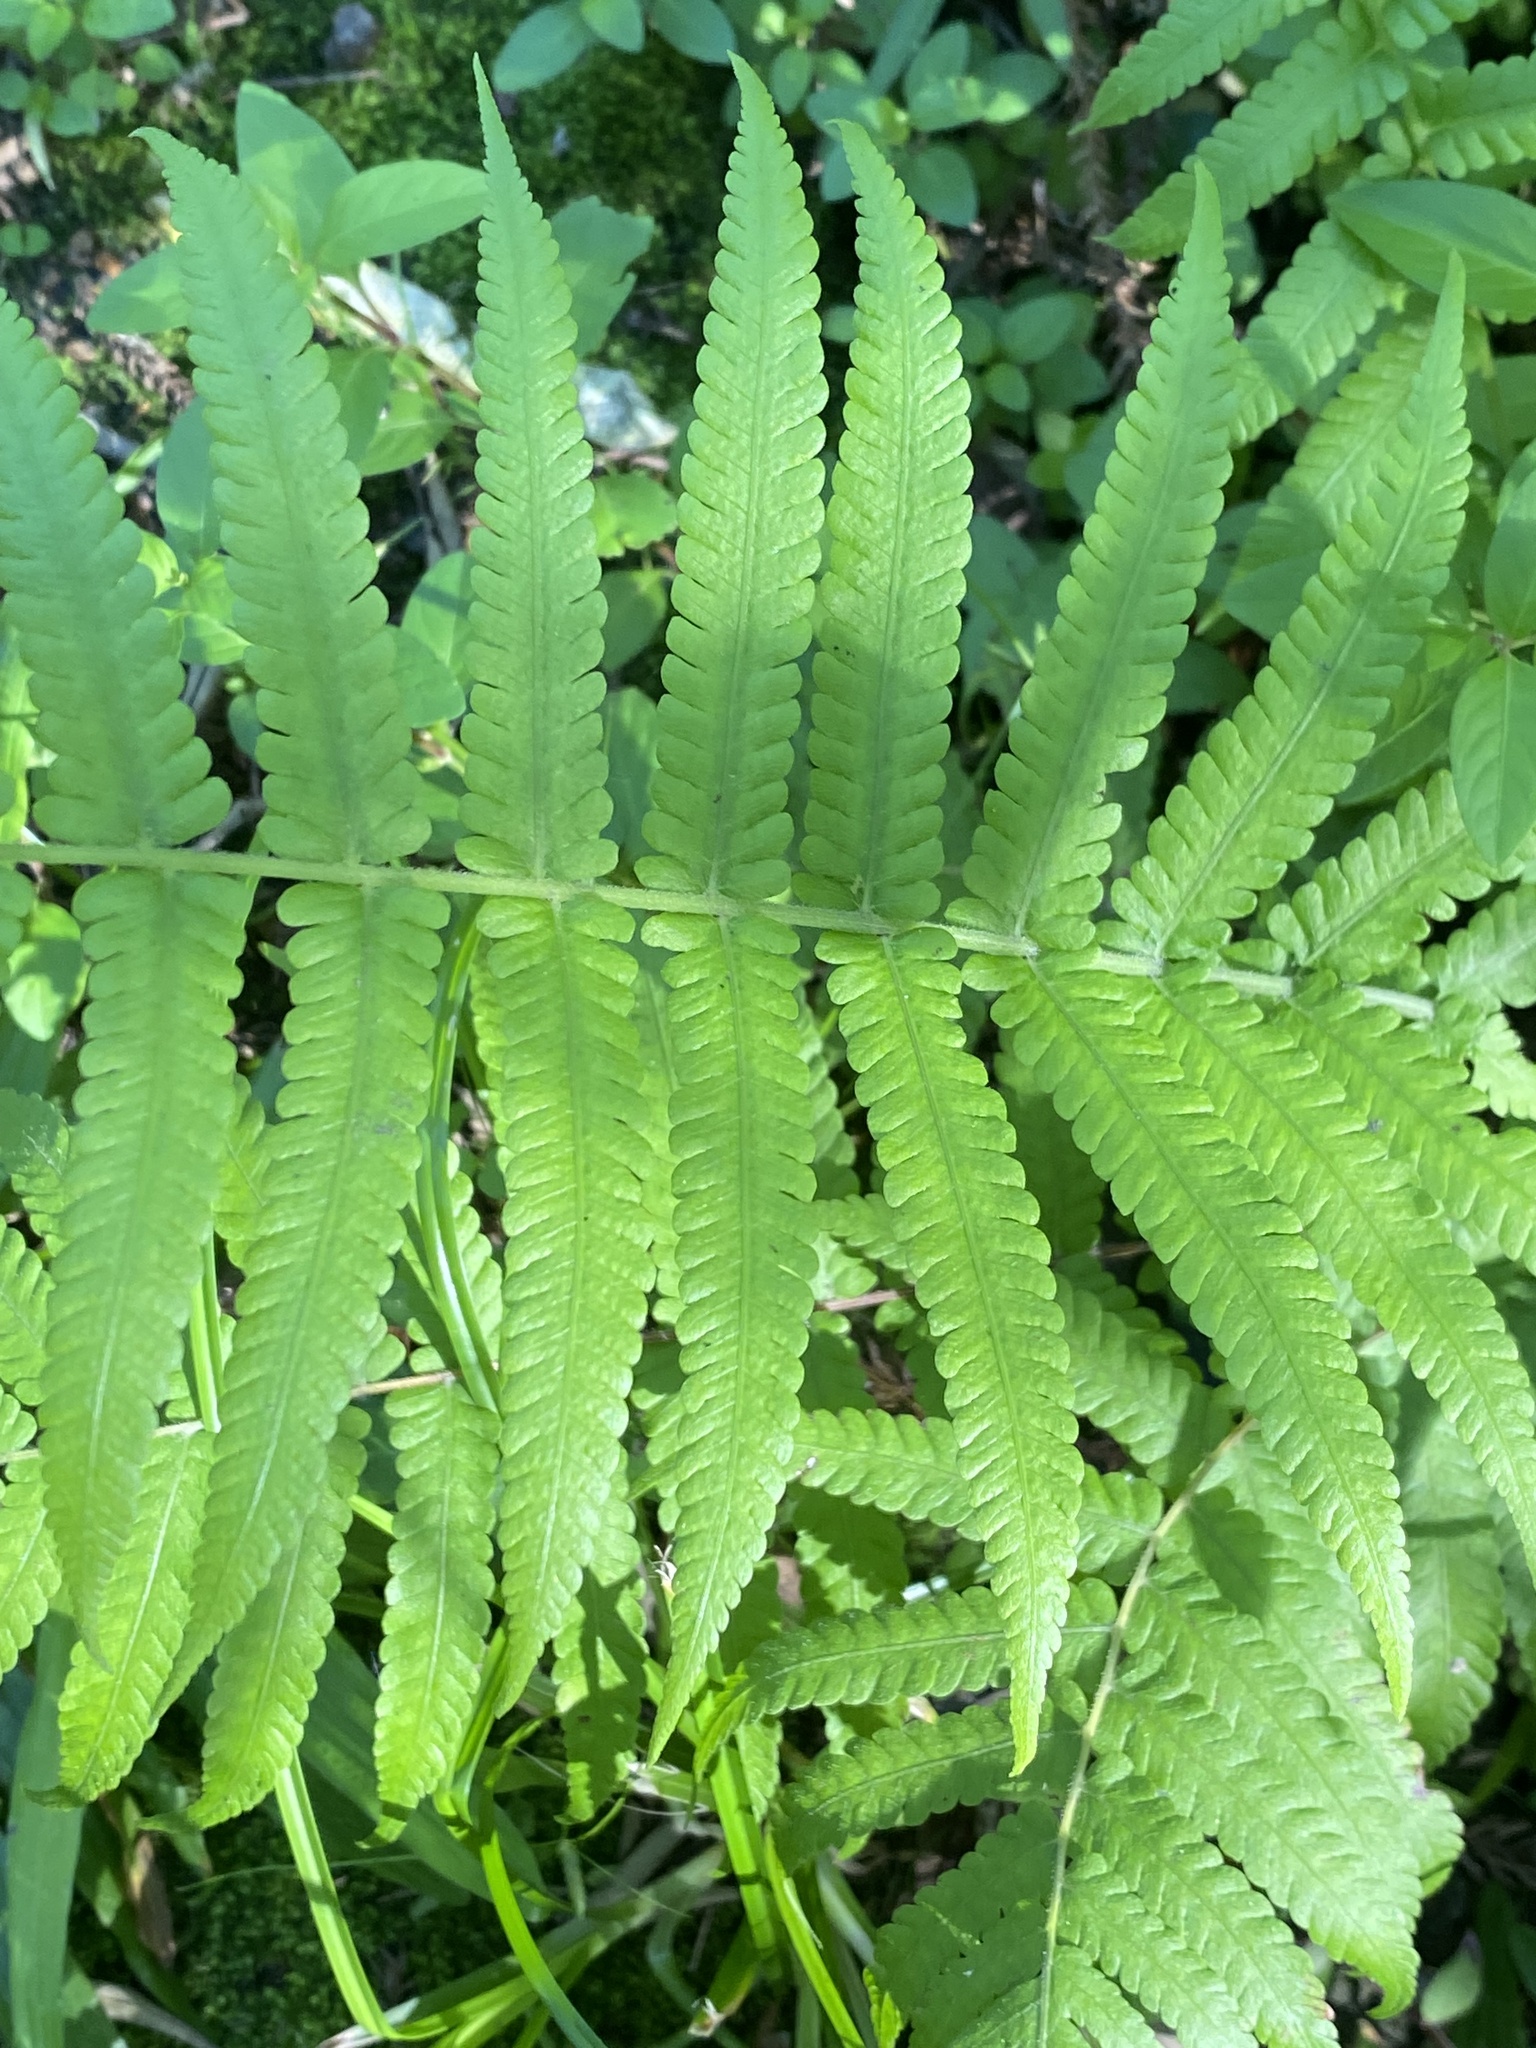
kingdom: Plantae
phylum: Tracheophyta
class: Polypodiopsida
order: Polypodiales
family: Thelypteridaceae
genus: Christella
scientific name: Christella dentata
